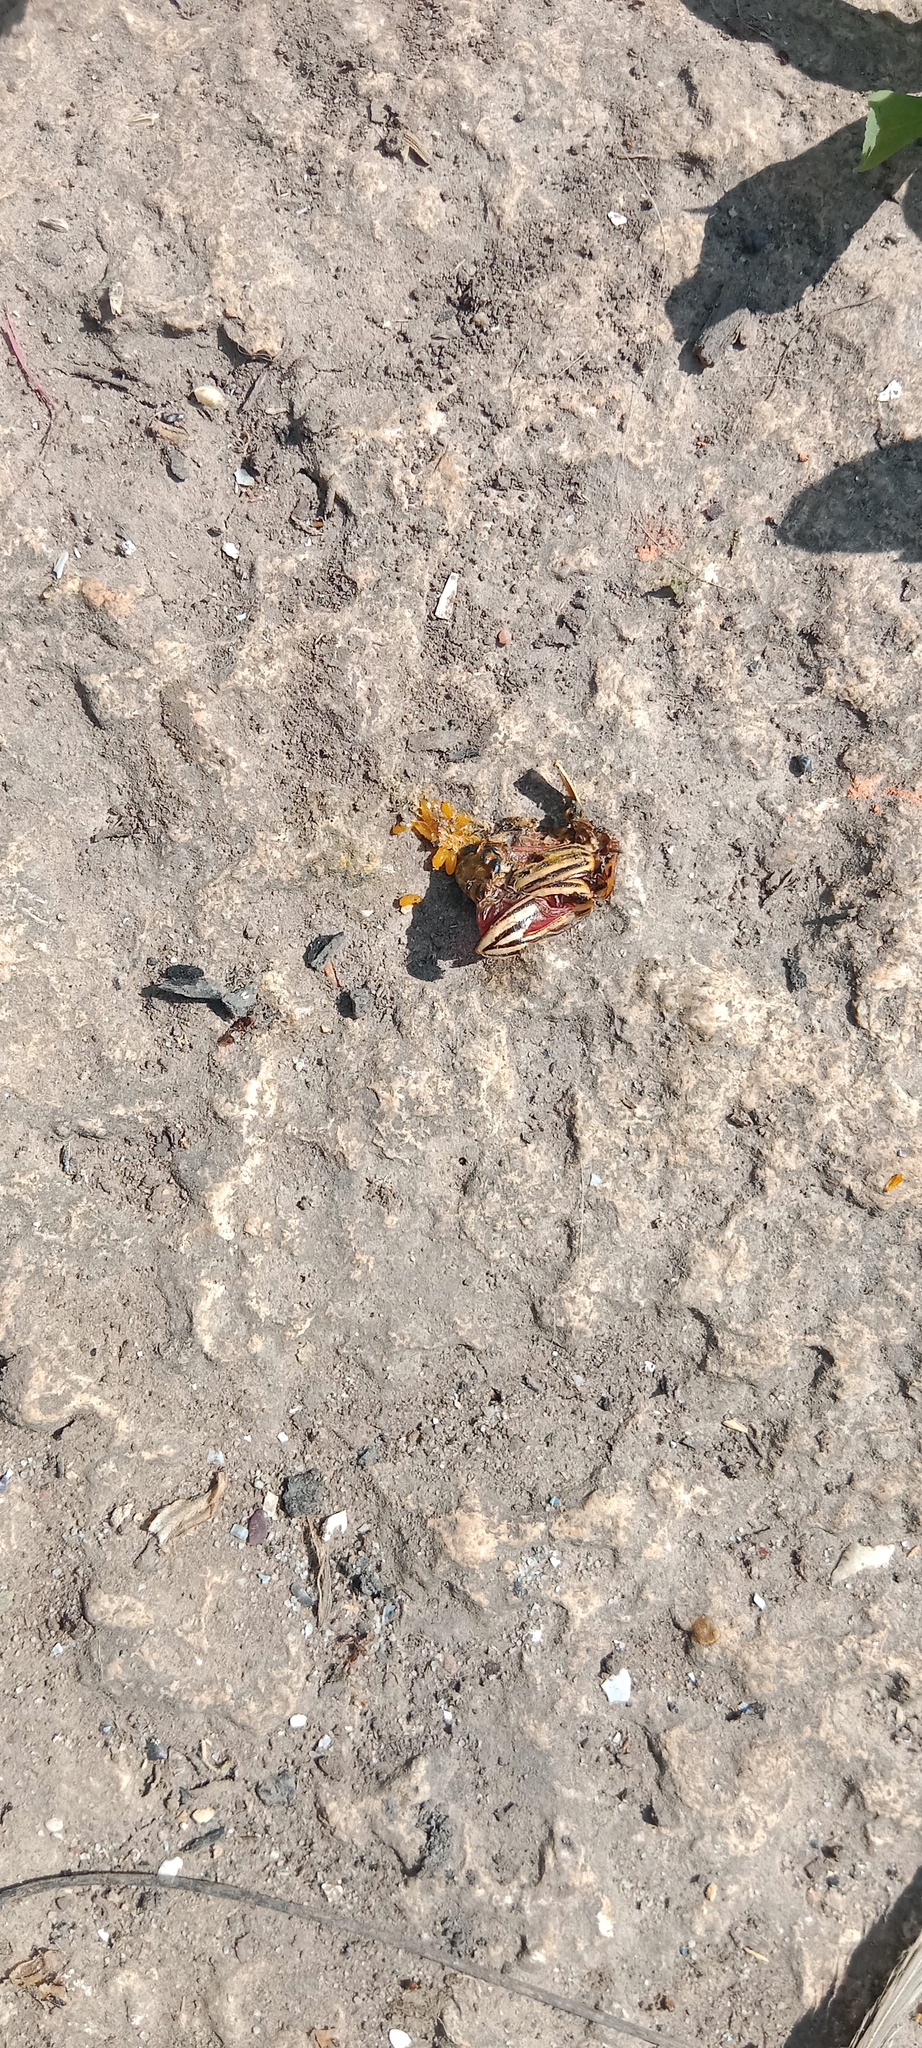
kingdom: Animalia
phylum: Arthropoda
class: Insecta
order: Coleoptera
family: Chrysomelidae
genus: Leptinotarsa
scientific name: Leptinotarsa decemlineata
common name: Colorado potato beetle
